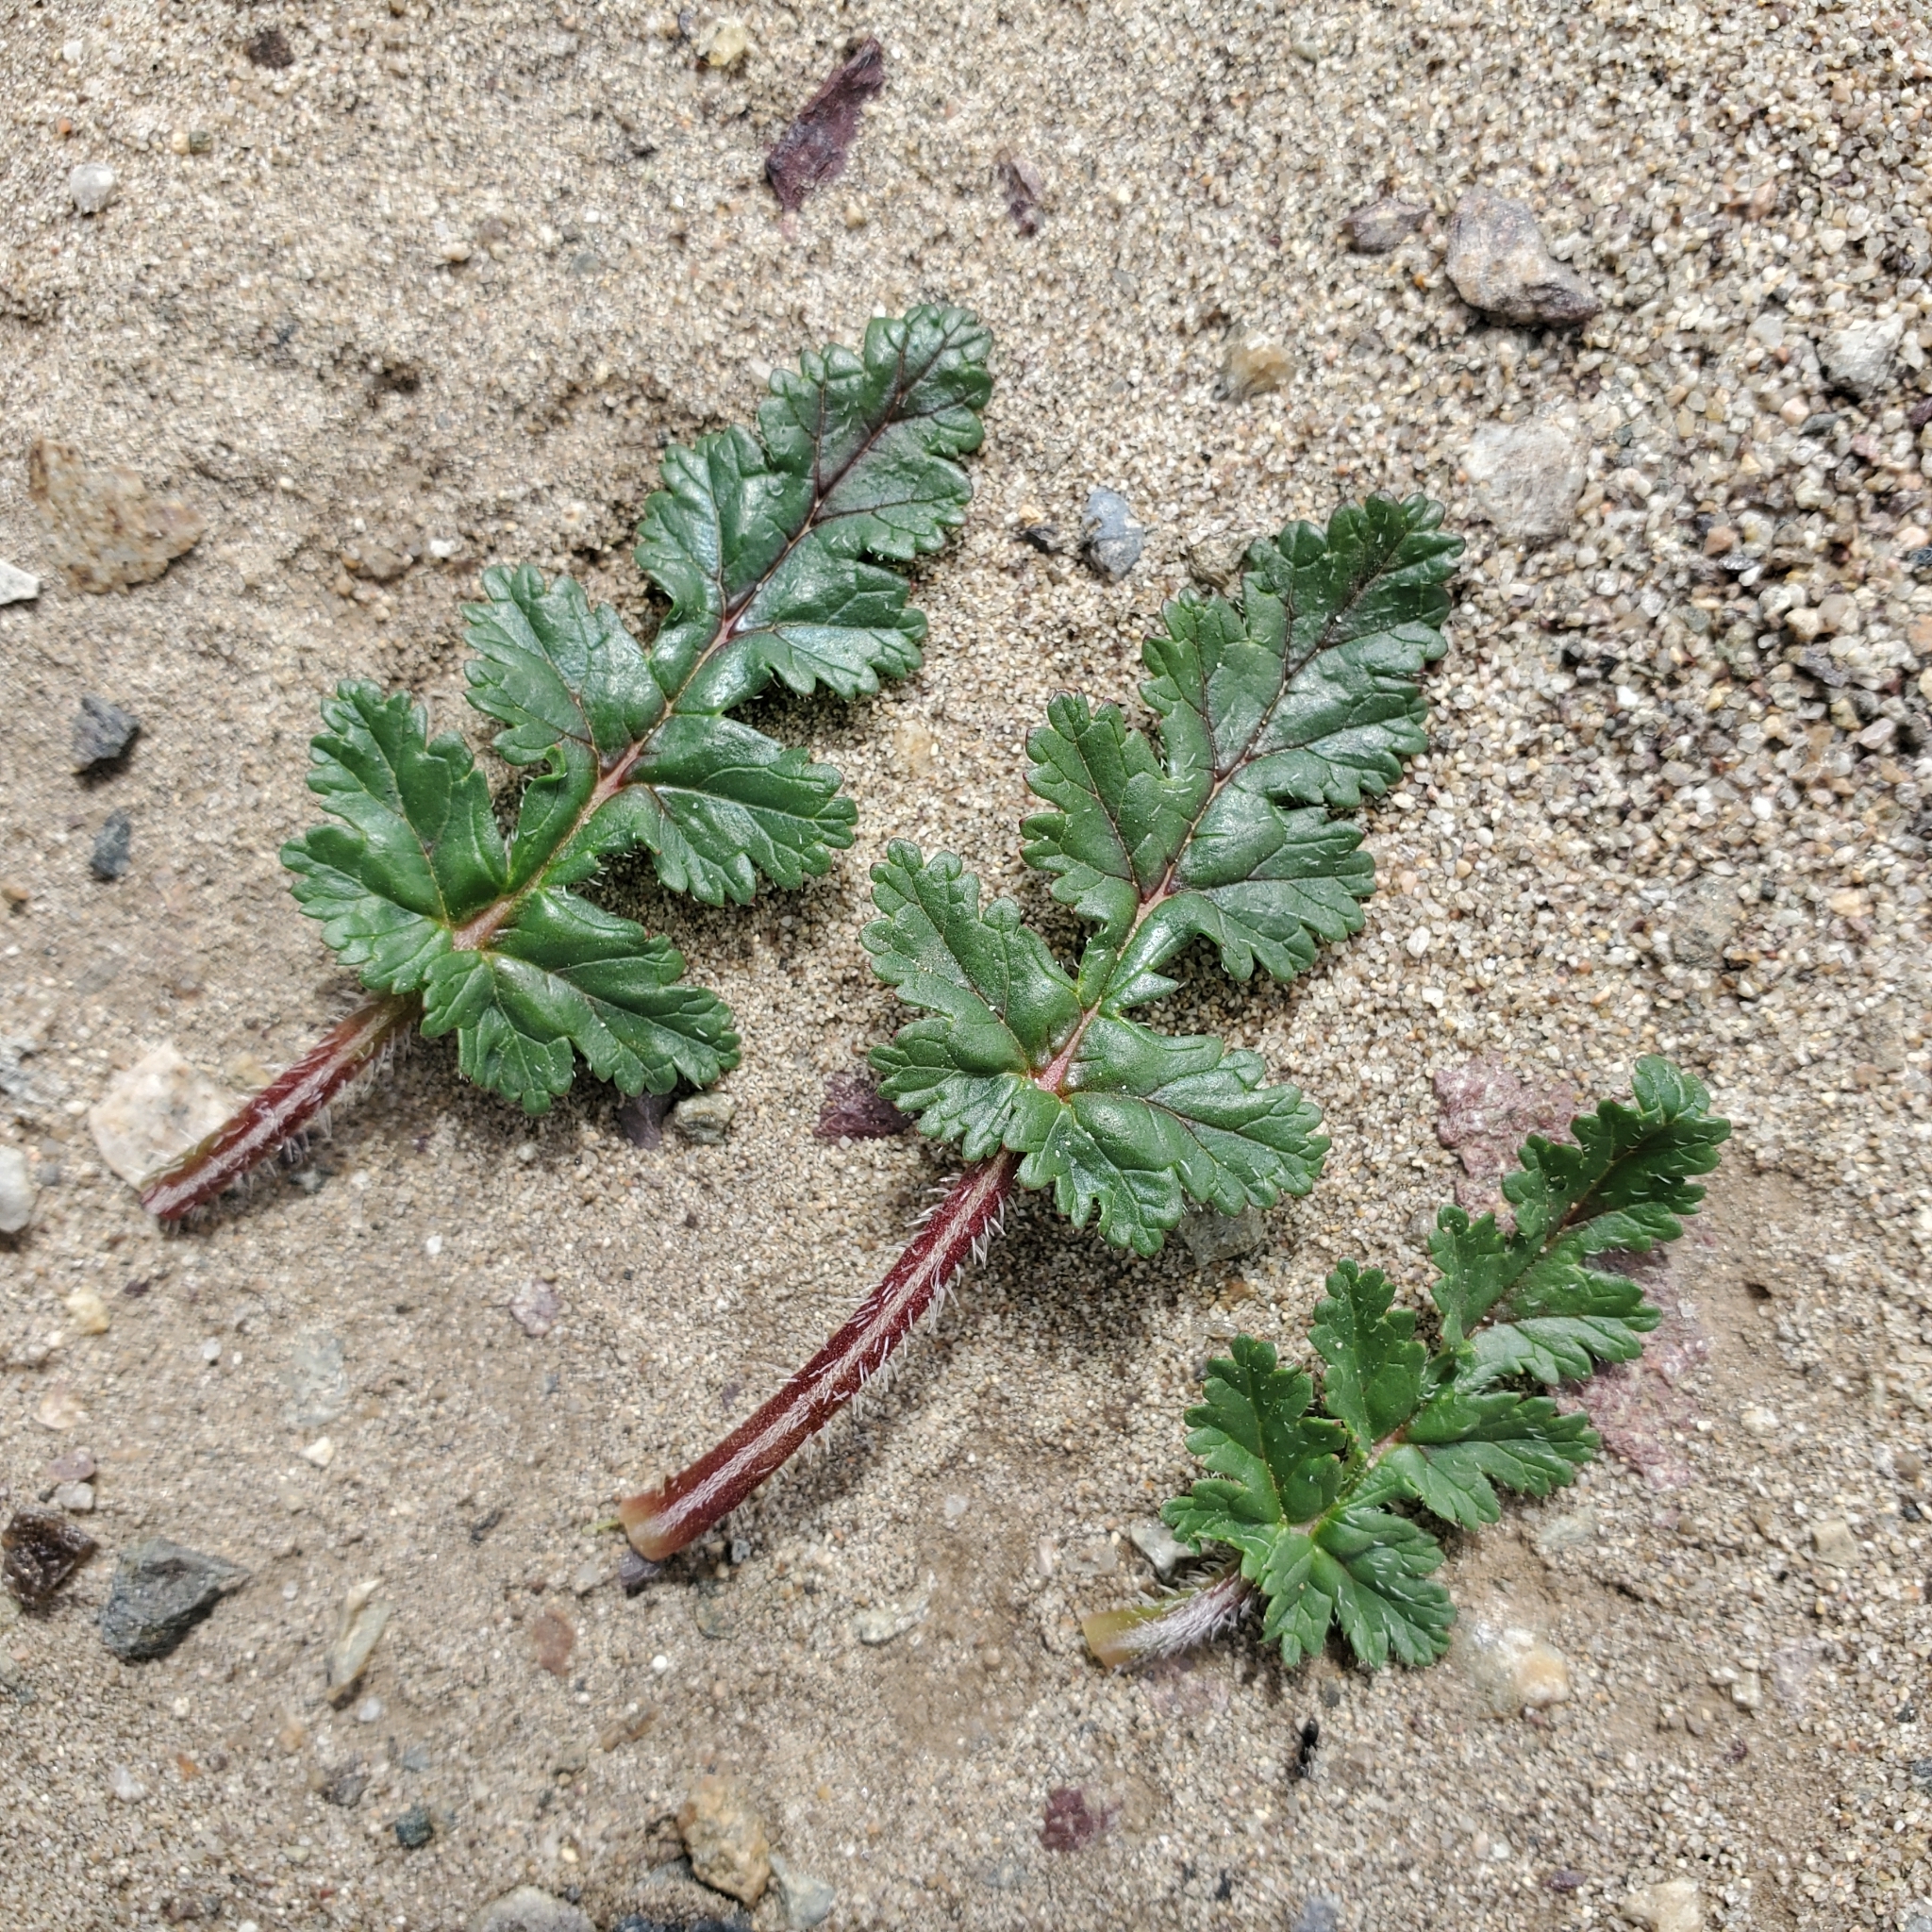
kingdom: Plantae
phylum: Tracheophyta
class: Magnoliopsida
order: Geraniales
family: Geraniaceae
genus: Erodium
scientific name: Erodium botrys
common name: Mediterranean stork's-bill
